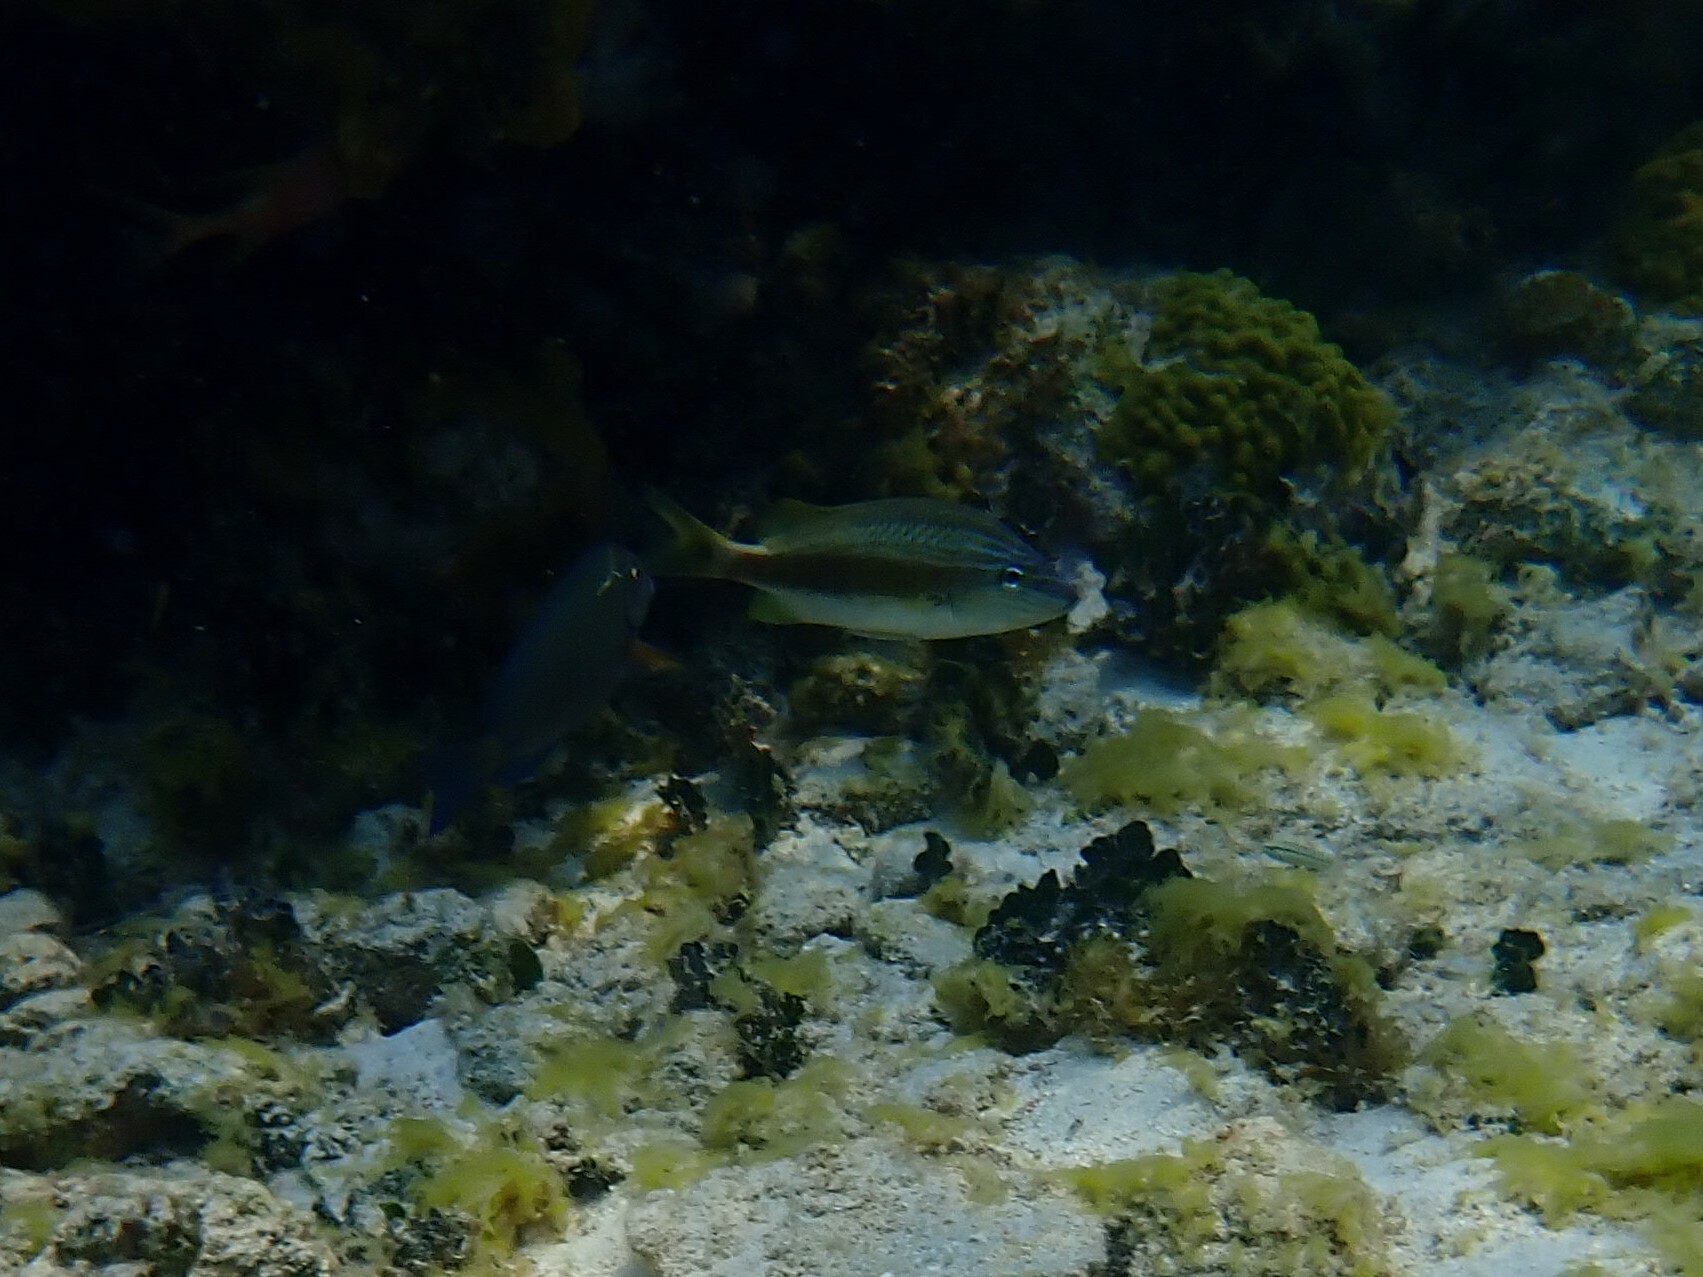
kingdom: Animalia
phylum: Chordata
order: Perciformes
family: Haemulidae
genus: Haemulon
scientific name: Haemulon plumierii
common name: White grunt
